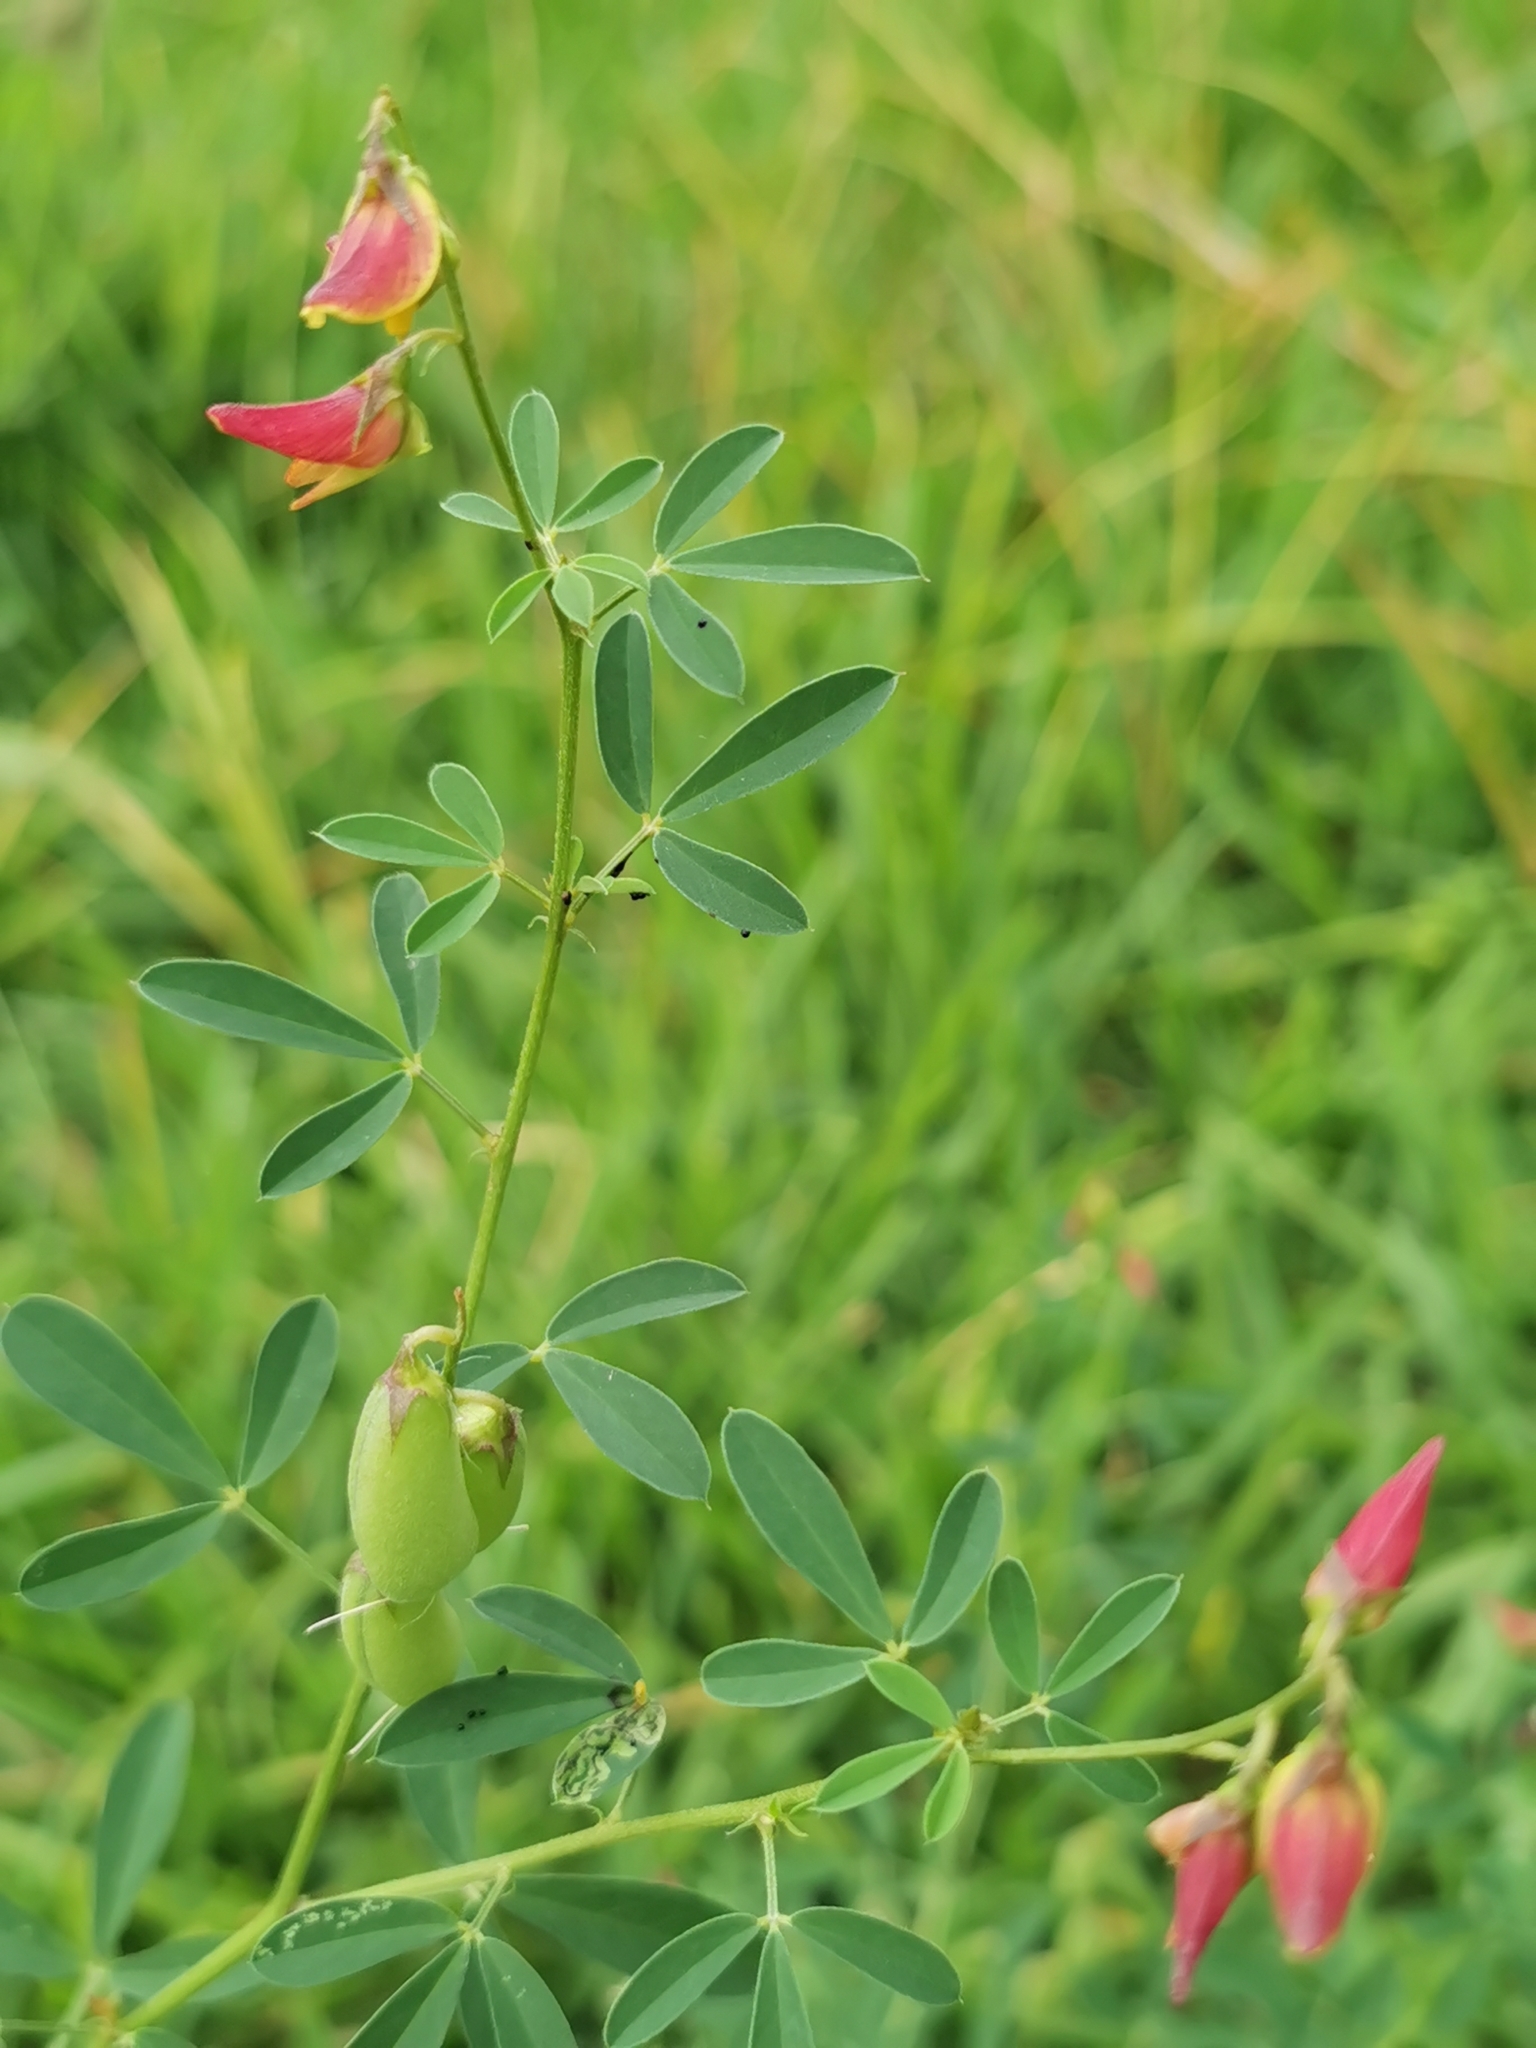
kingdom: Plantae
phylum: Tracheophyta
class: Magnoliopsida
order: Fabales
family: Fabaceae
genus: Crotalaria
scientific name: Crotalaria pumila
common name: Low rattlebox
